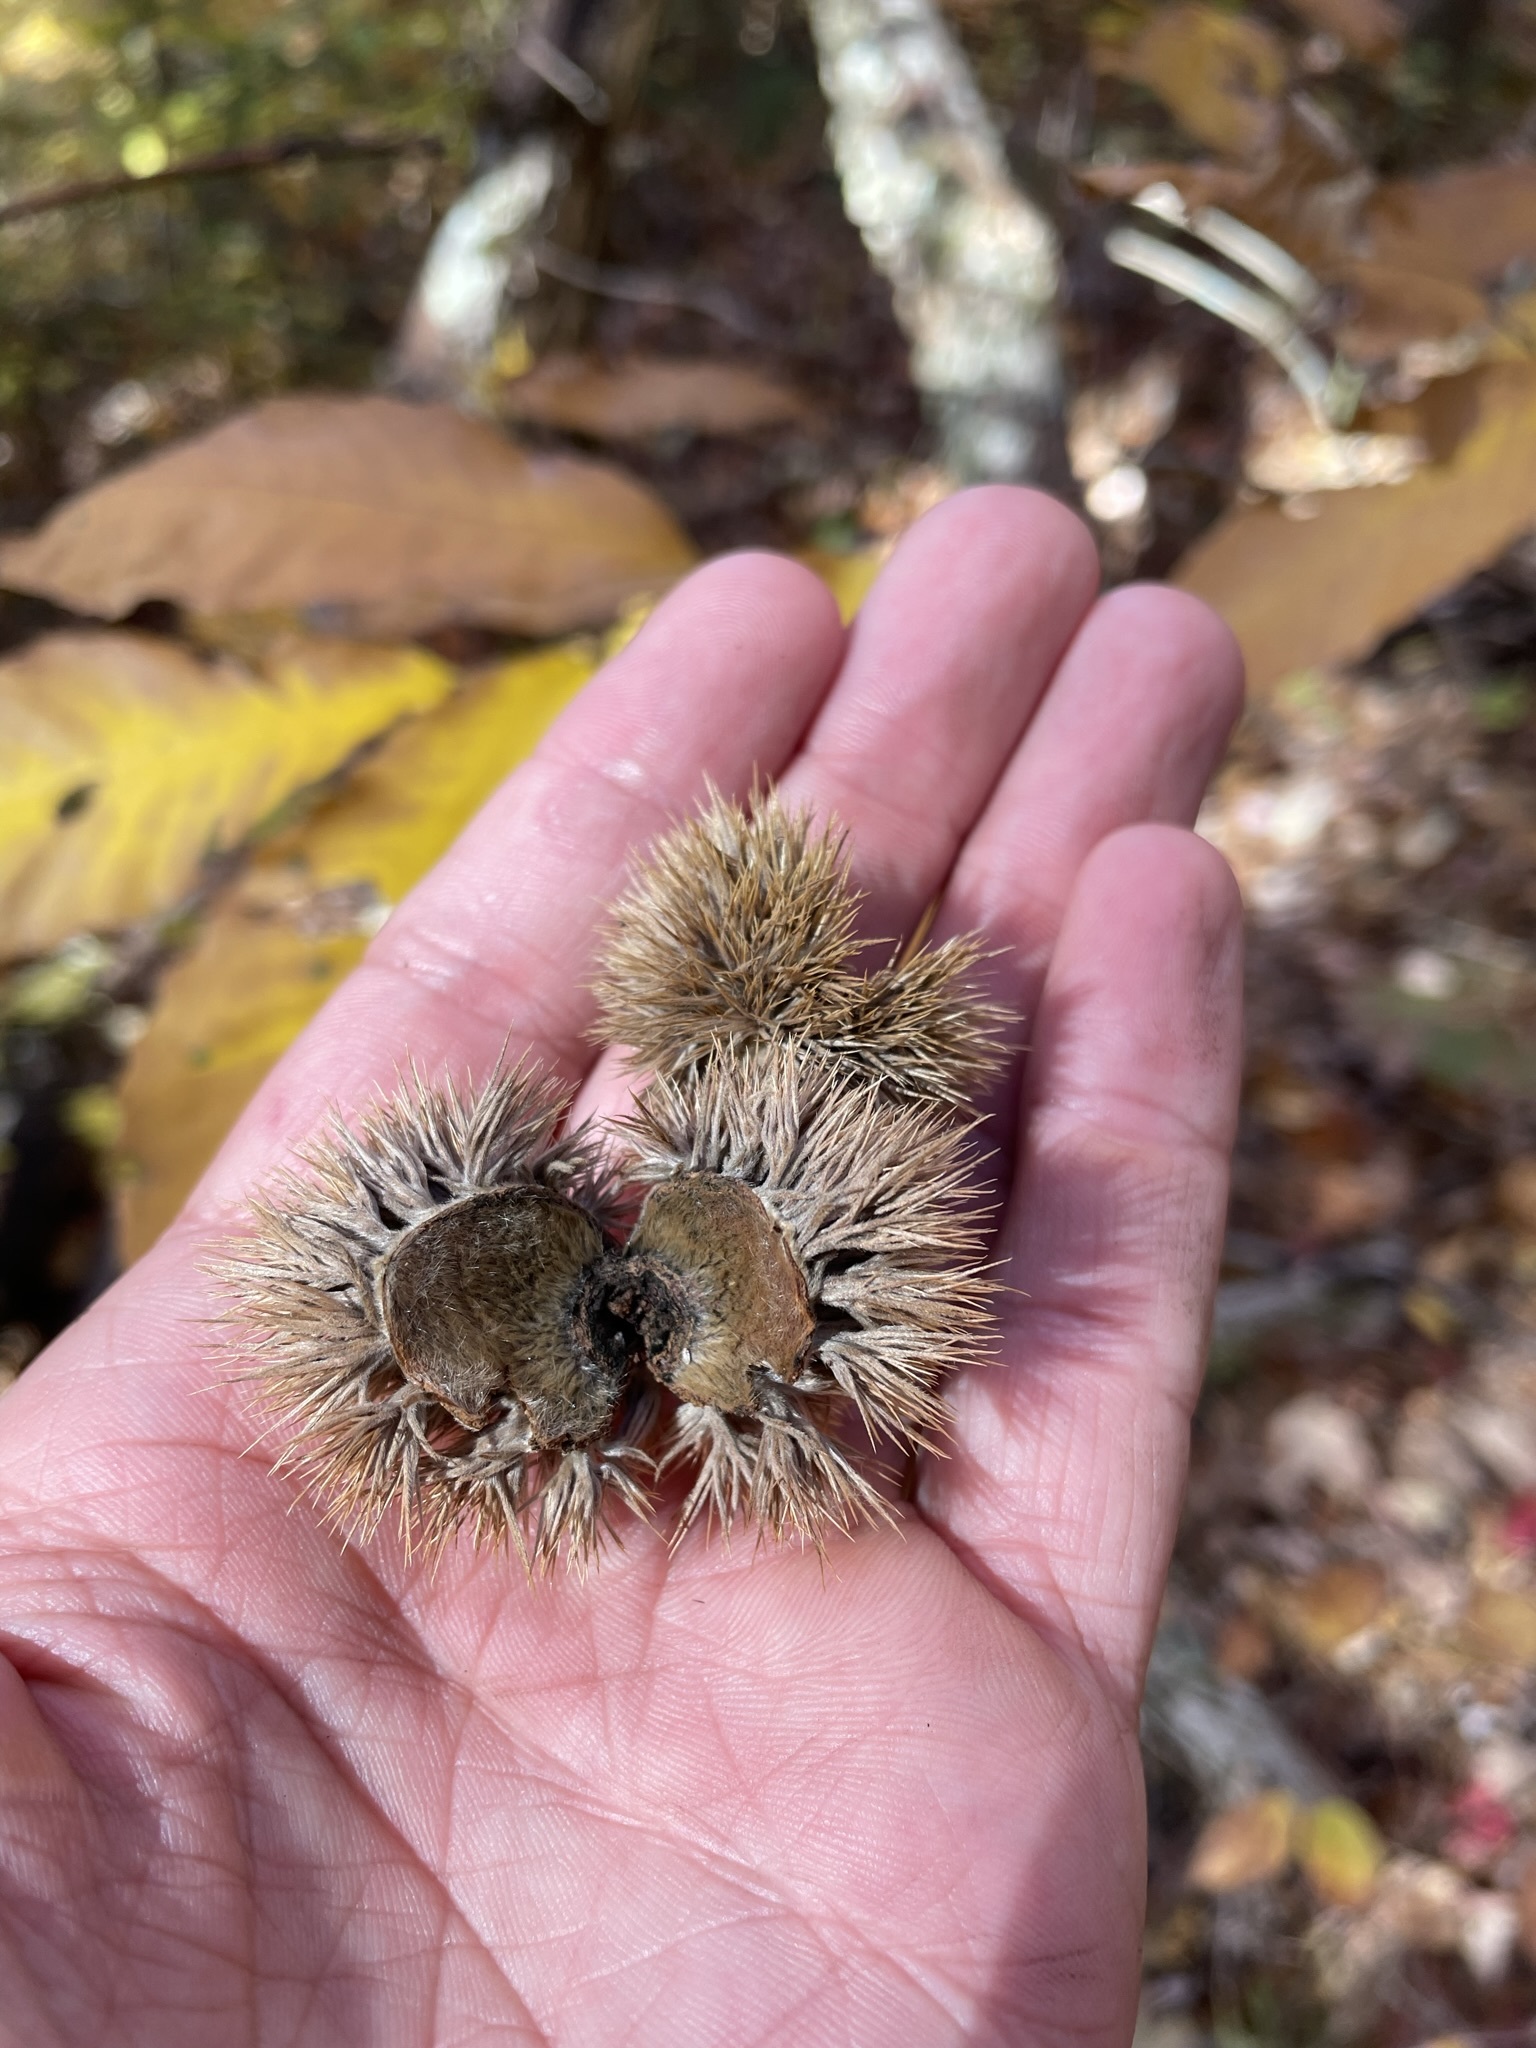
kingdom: Plantae
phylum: Tracheophyta
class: Magnoliopsida
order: Fagales
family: Fagaceae
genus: Castanea
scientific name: Castanea pumila
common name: Chinkapin
